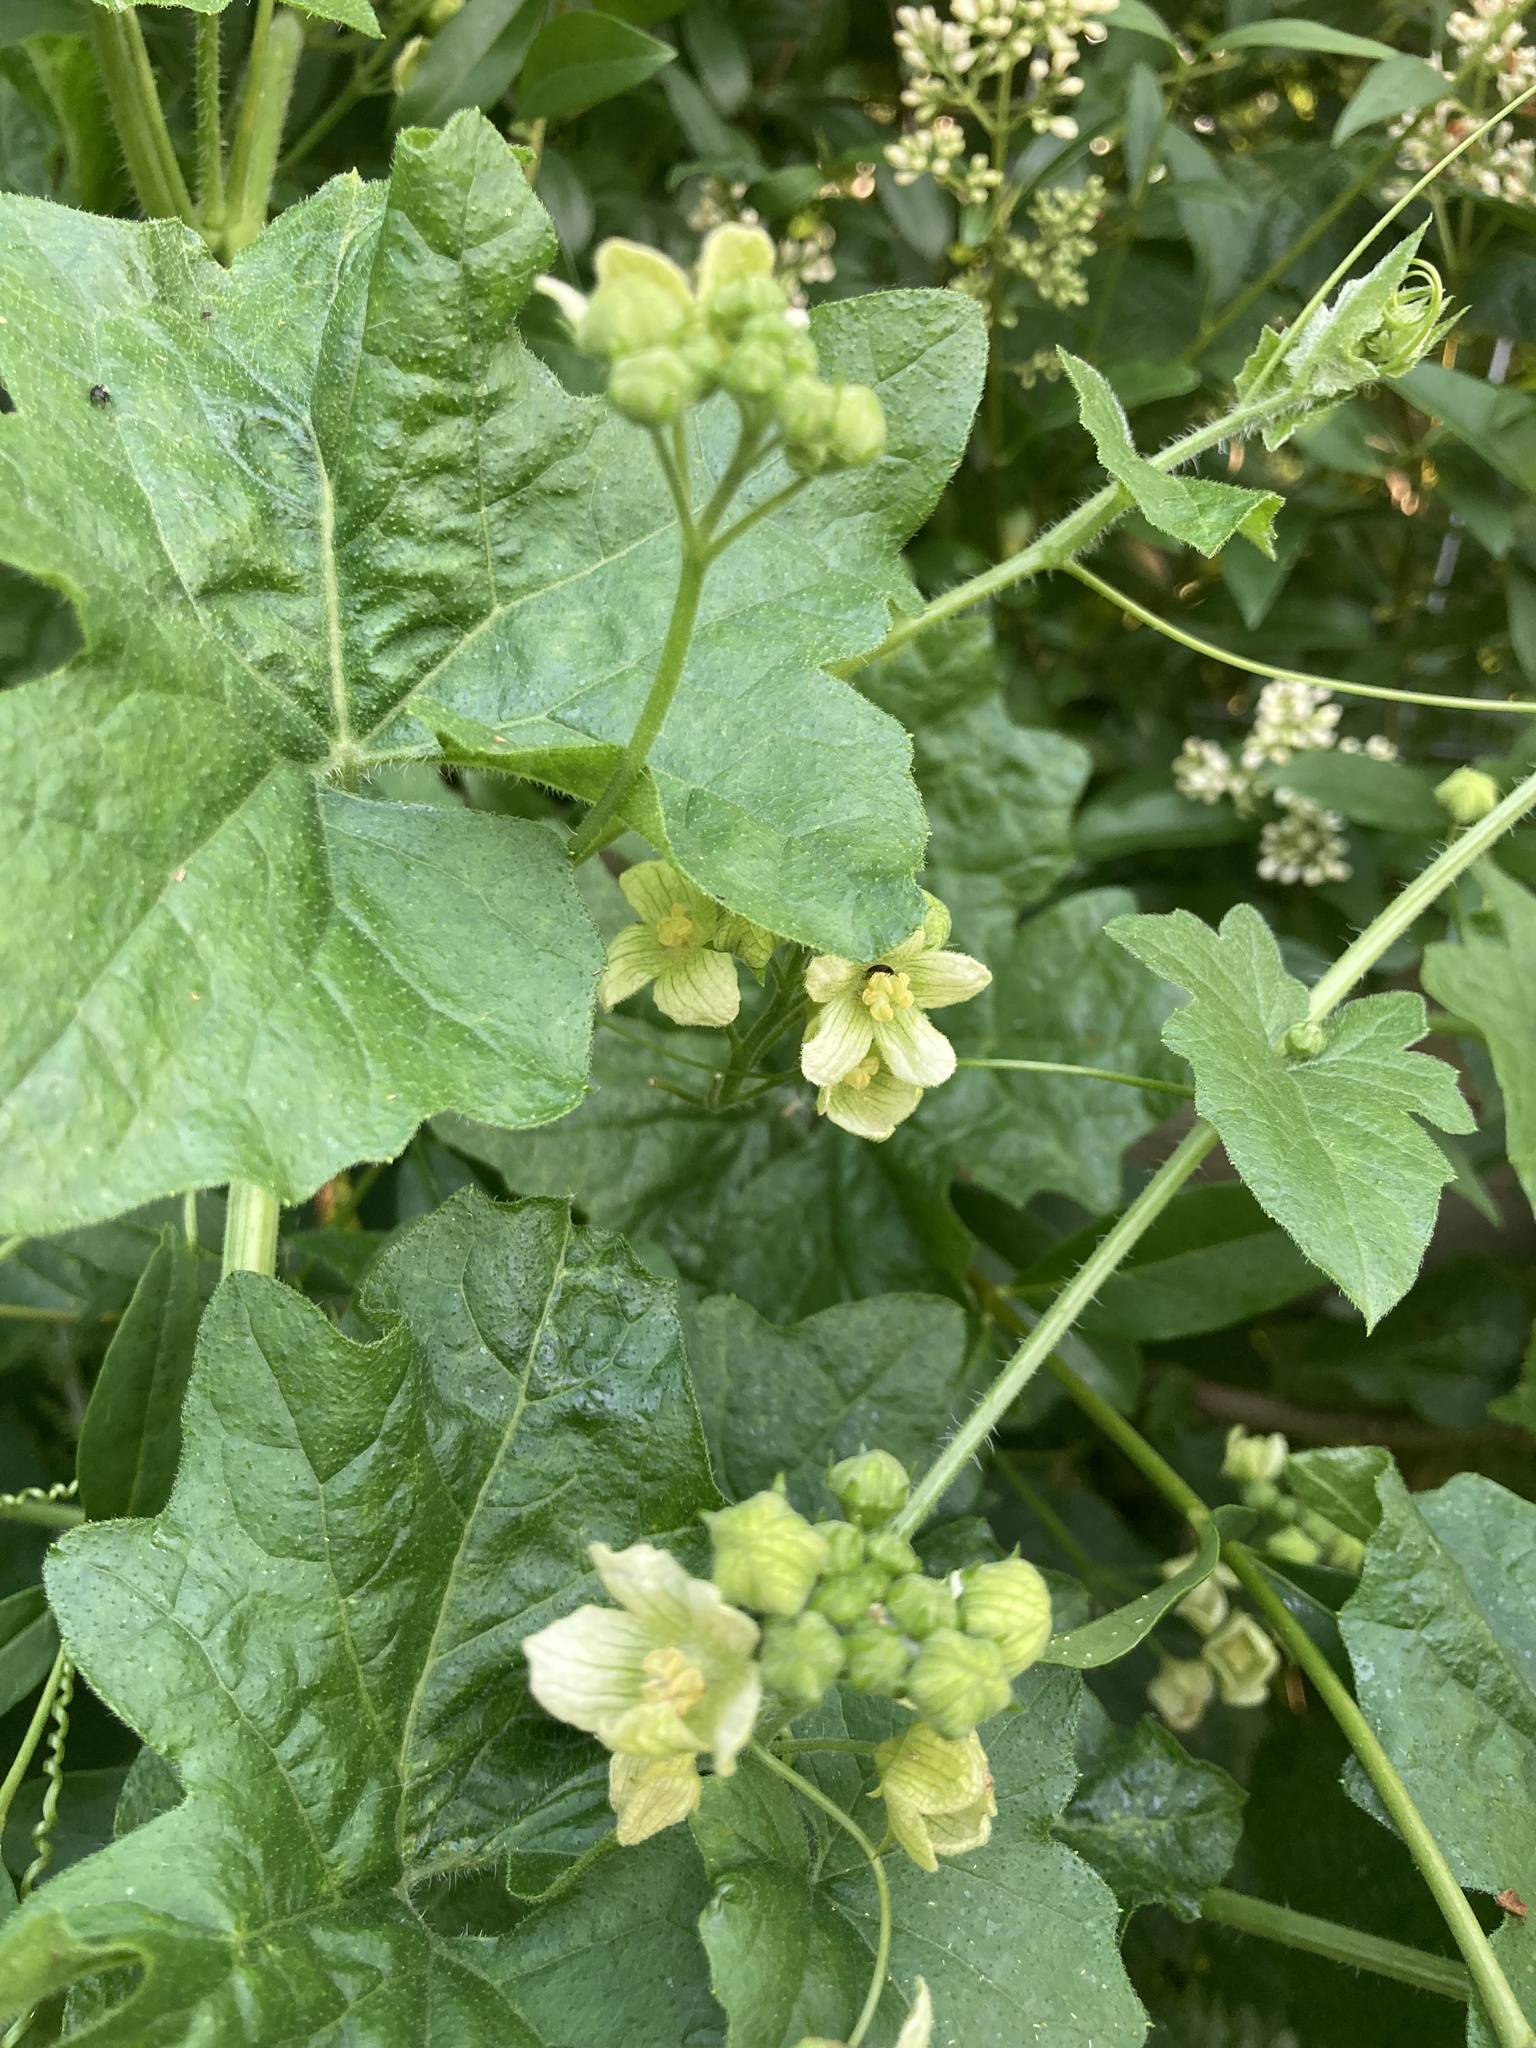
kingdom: Plantae
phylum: Tracheophyta
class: Magnoliopsida
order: Cucurbitales
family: Cucurbitaceae
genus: Bryonia
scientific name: Bryonia cretica
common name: Cretan bryony
